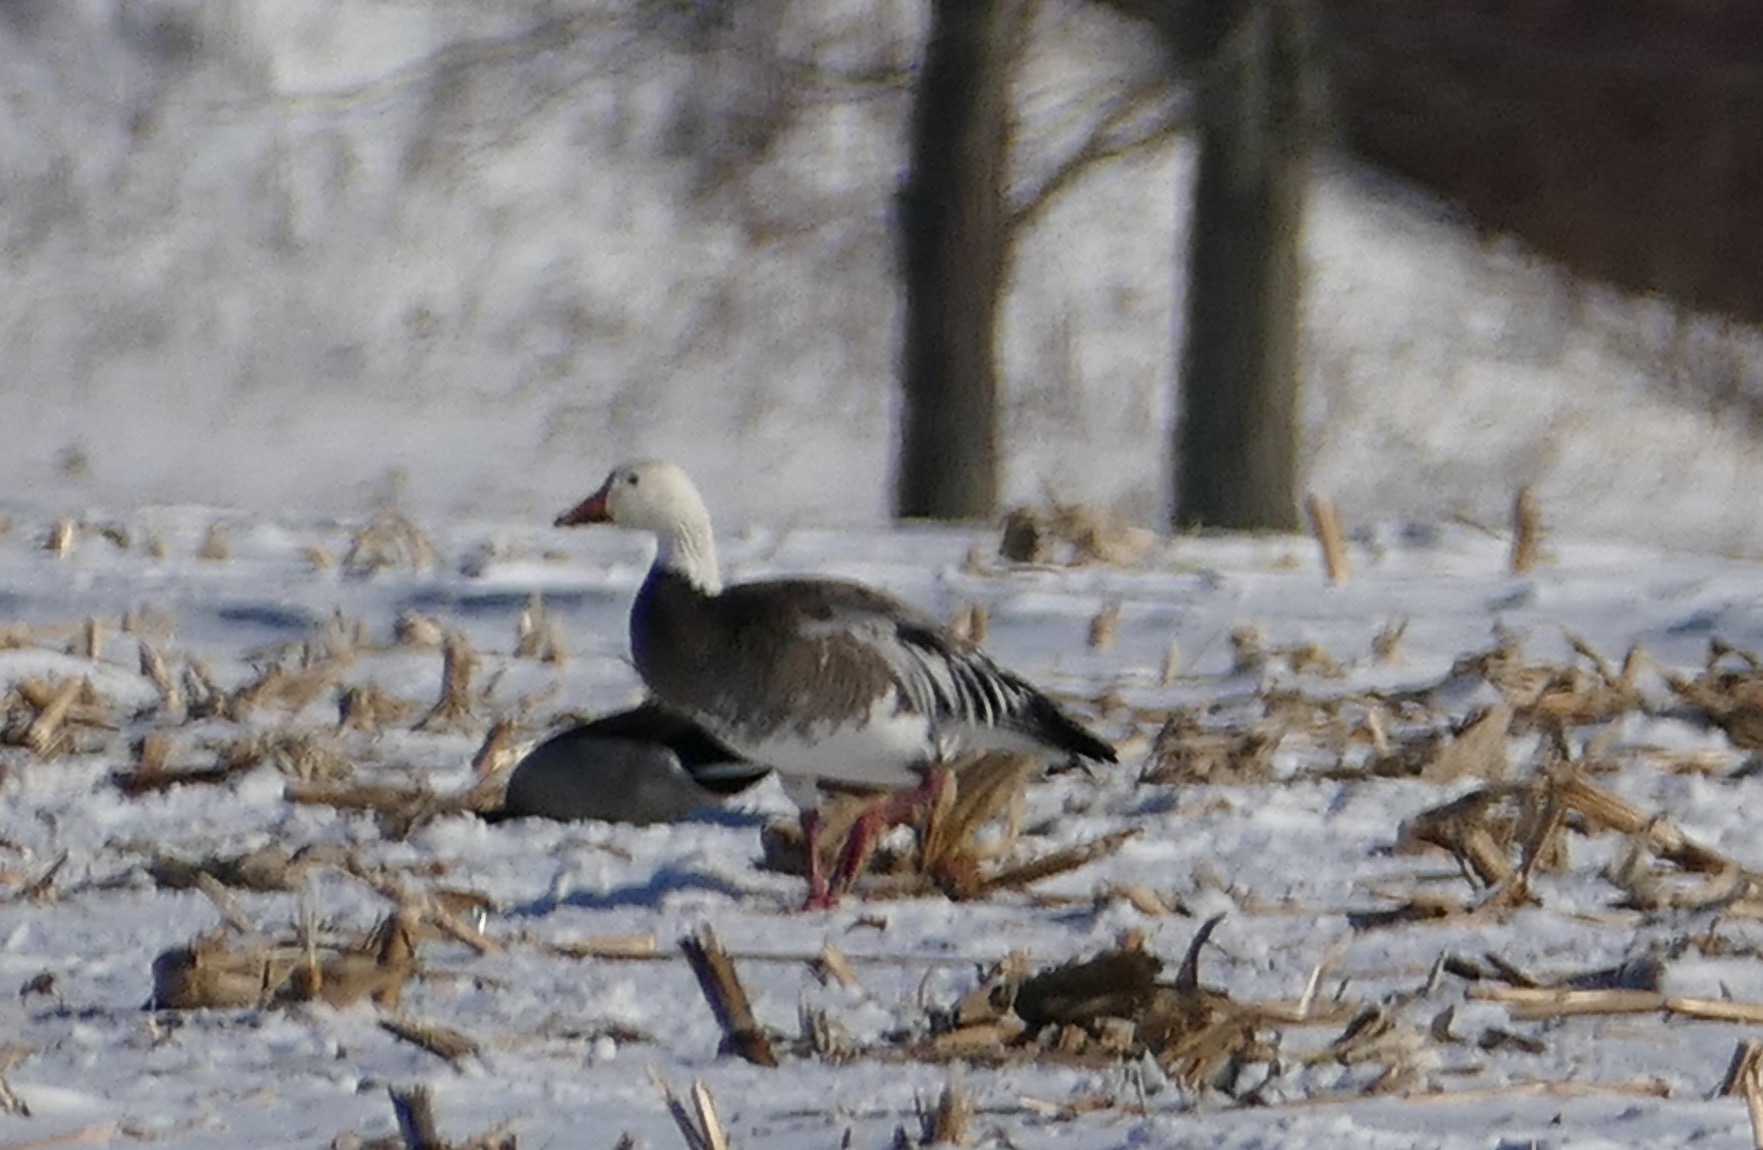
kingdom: Animalia
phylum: Chordata
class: Aves
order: Anseriformes
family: Anatidae
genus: Anser
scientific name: Anser caerulescens
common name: Snow goose
